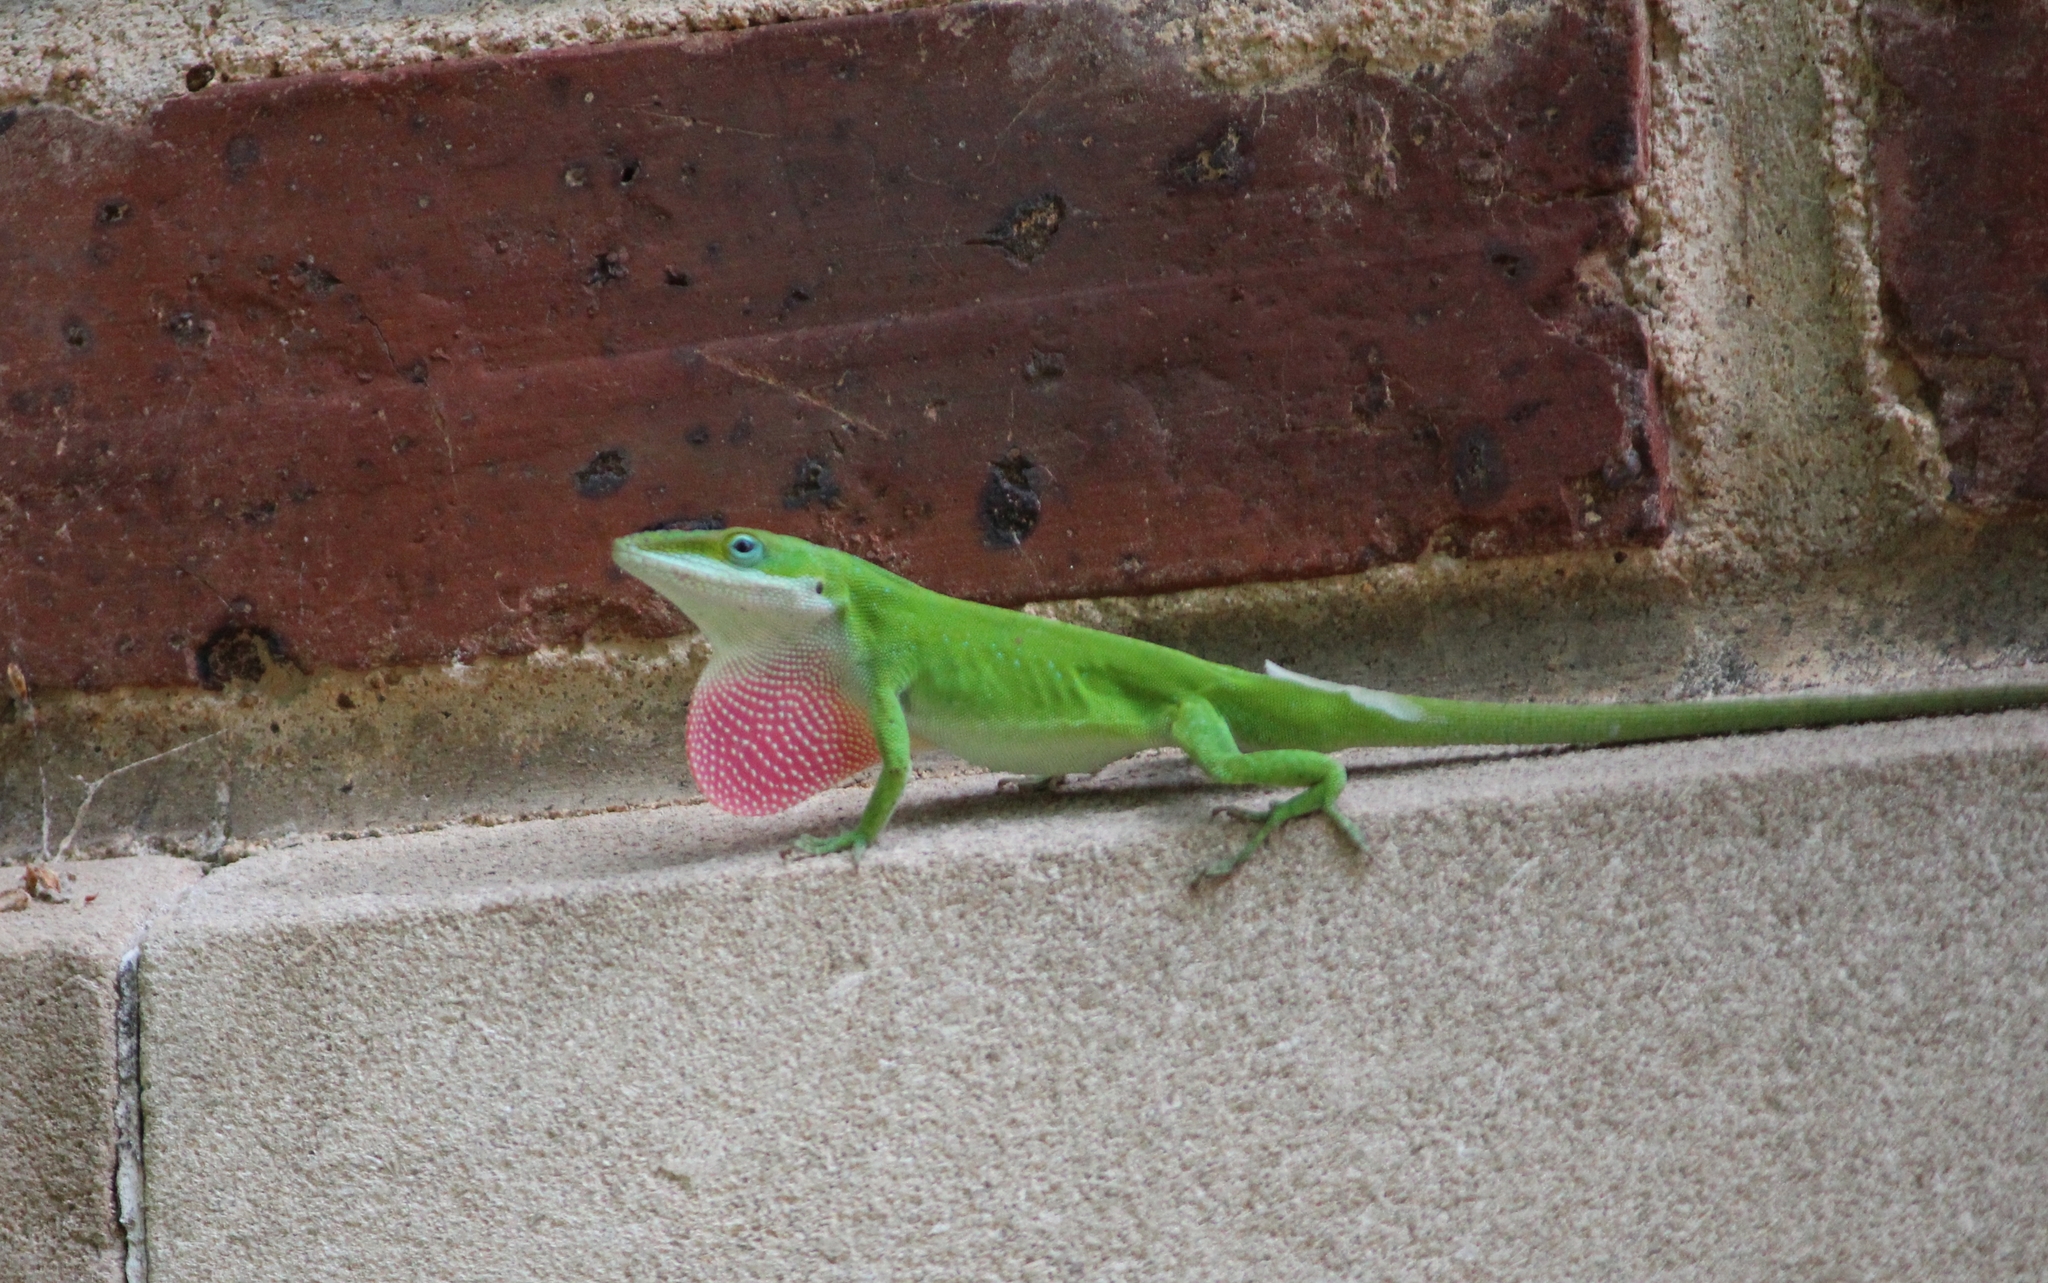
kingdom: Animalia
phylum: Chordata
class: Squamata
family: Dactyloidae
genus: Anolis
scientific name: Anolis carolinensis
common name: Green anole
